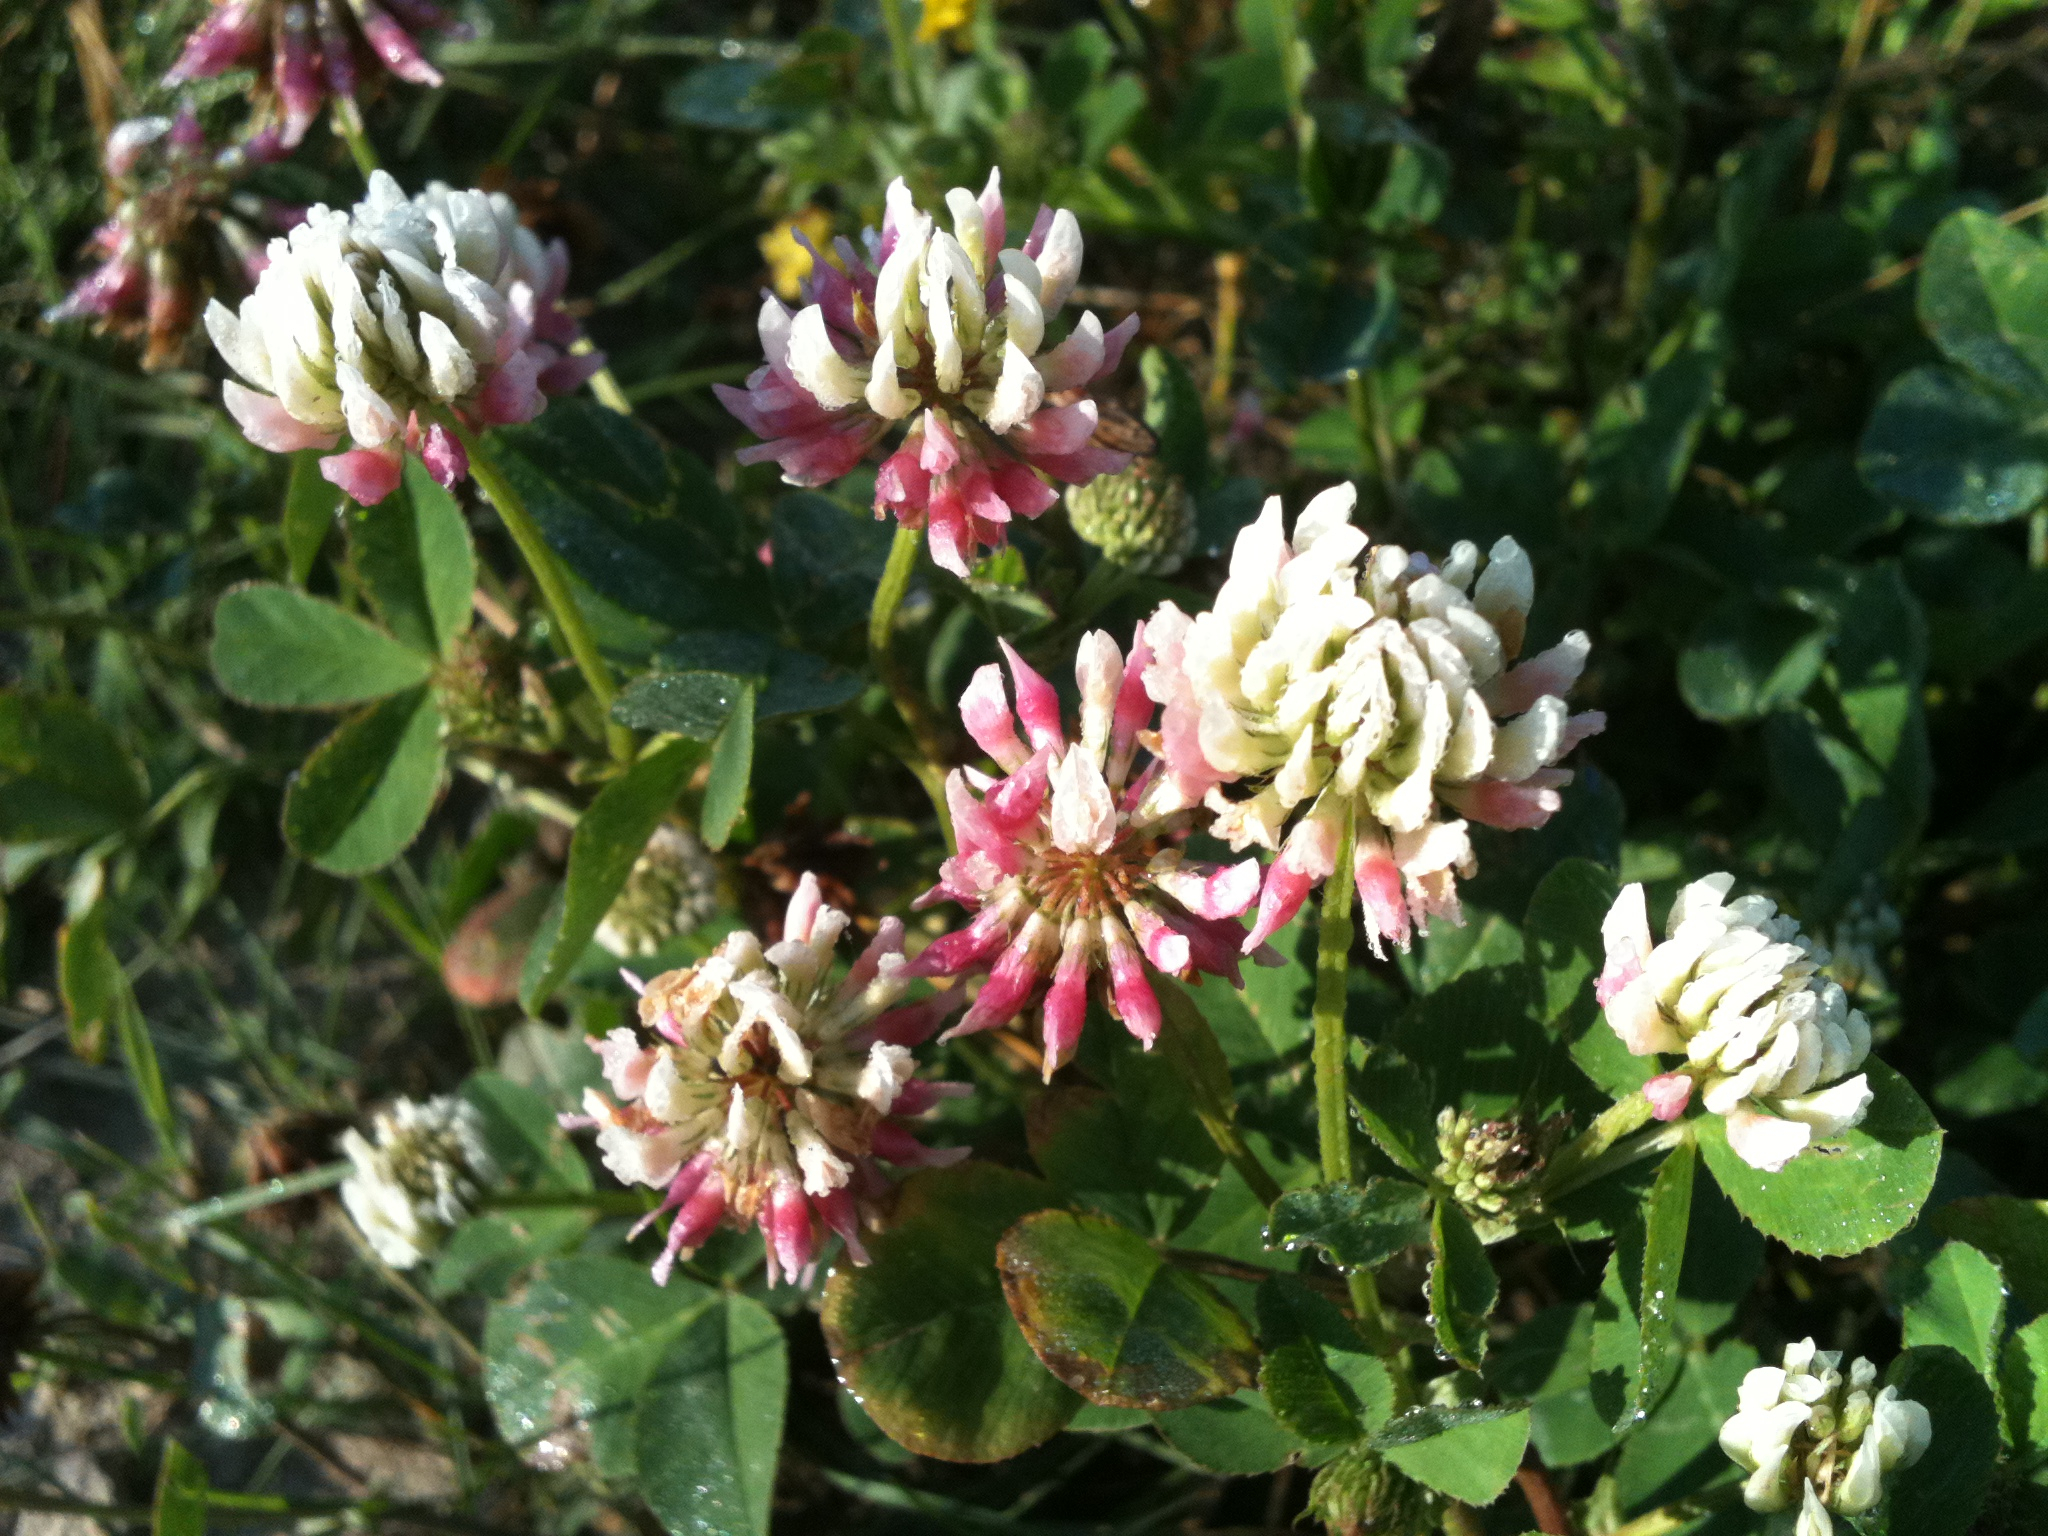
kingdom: Plantae
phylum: Tracheophyta
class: Magnoliopsida
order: Fabales
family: Fabaceae
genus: Trifolium
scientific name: Trifolium hybridum
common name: Alsike clover
